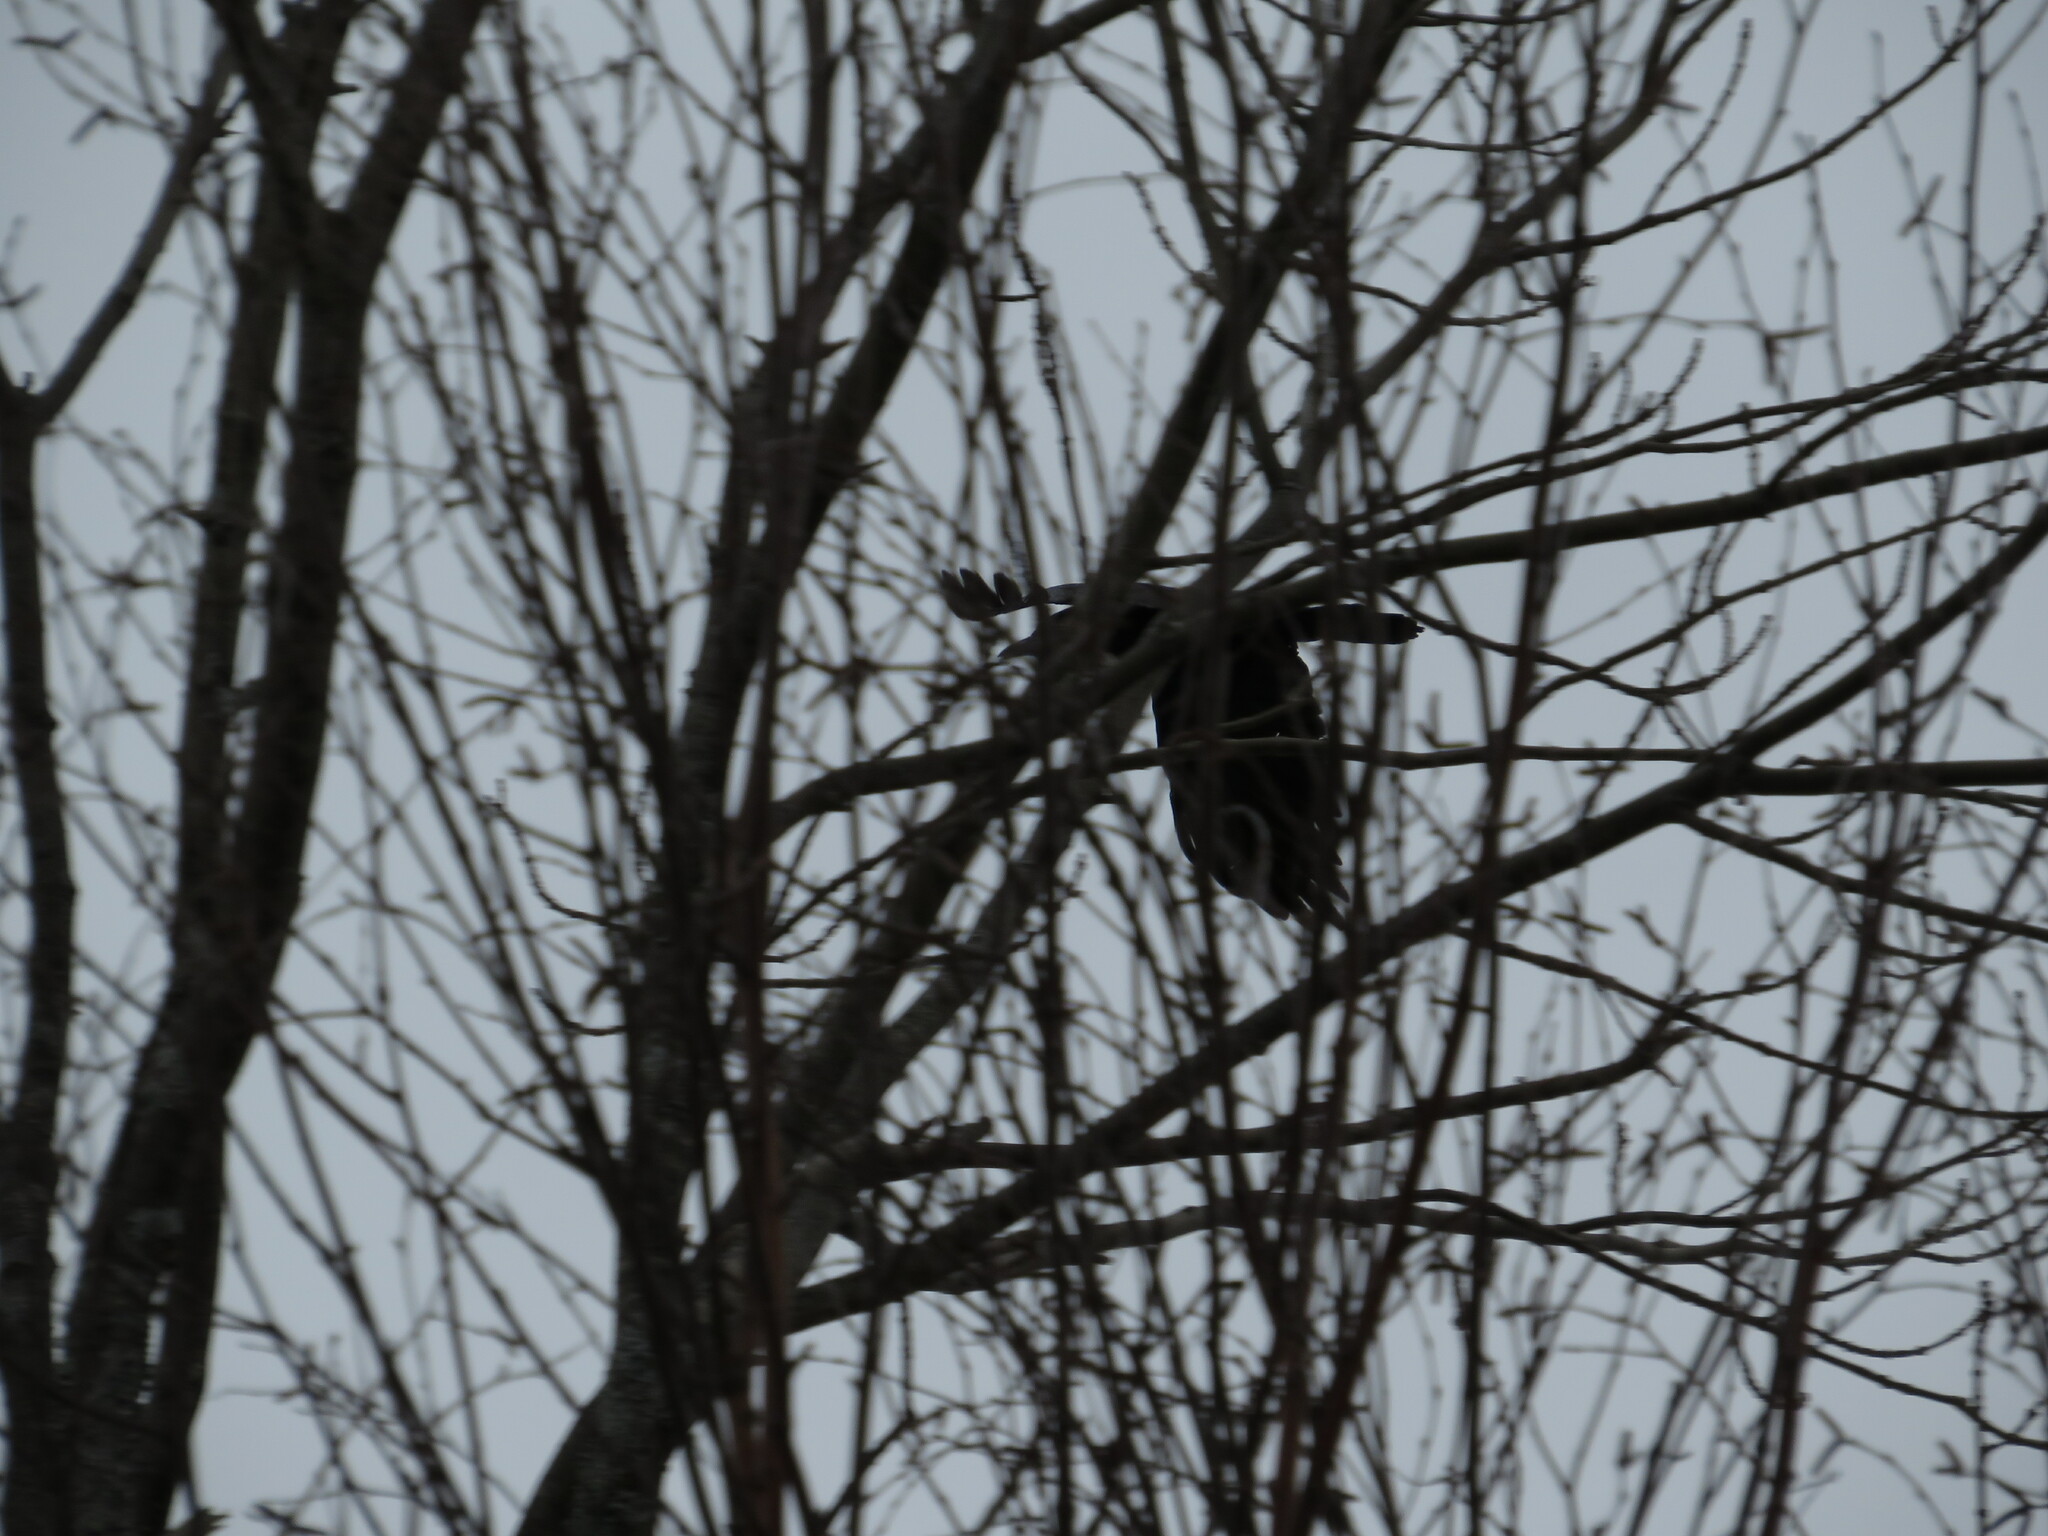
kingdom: Animalia
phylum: Chordata
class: Aves
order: Passeriformes
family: Corvidae
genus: Corvus
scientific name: Corvus brachyrhynchos
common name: American crow
